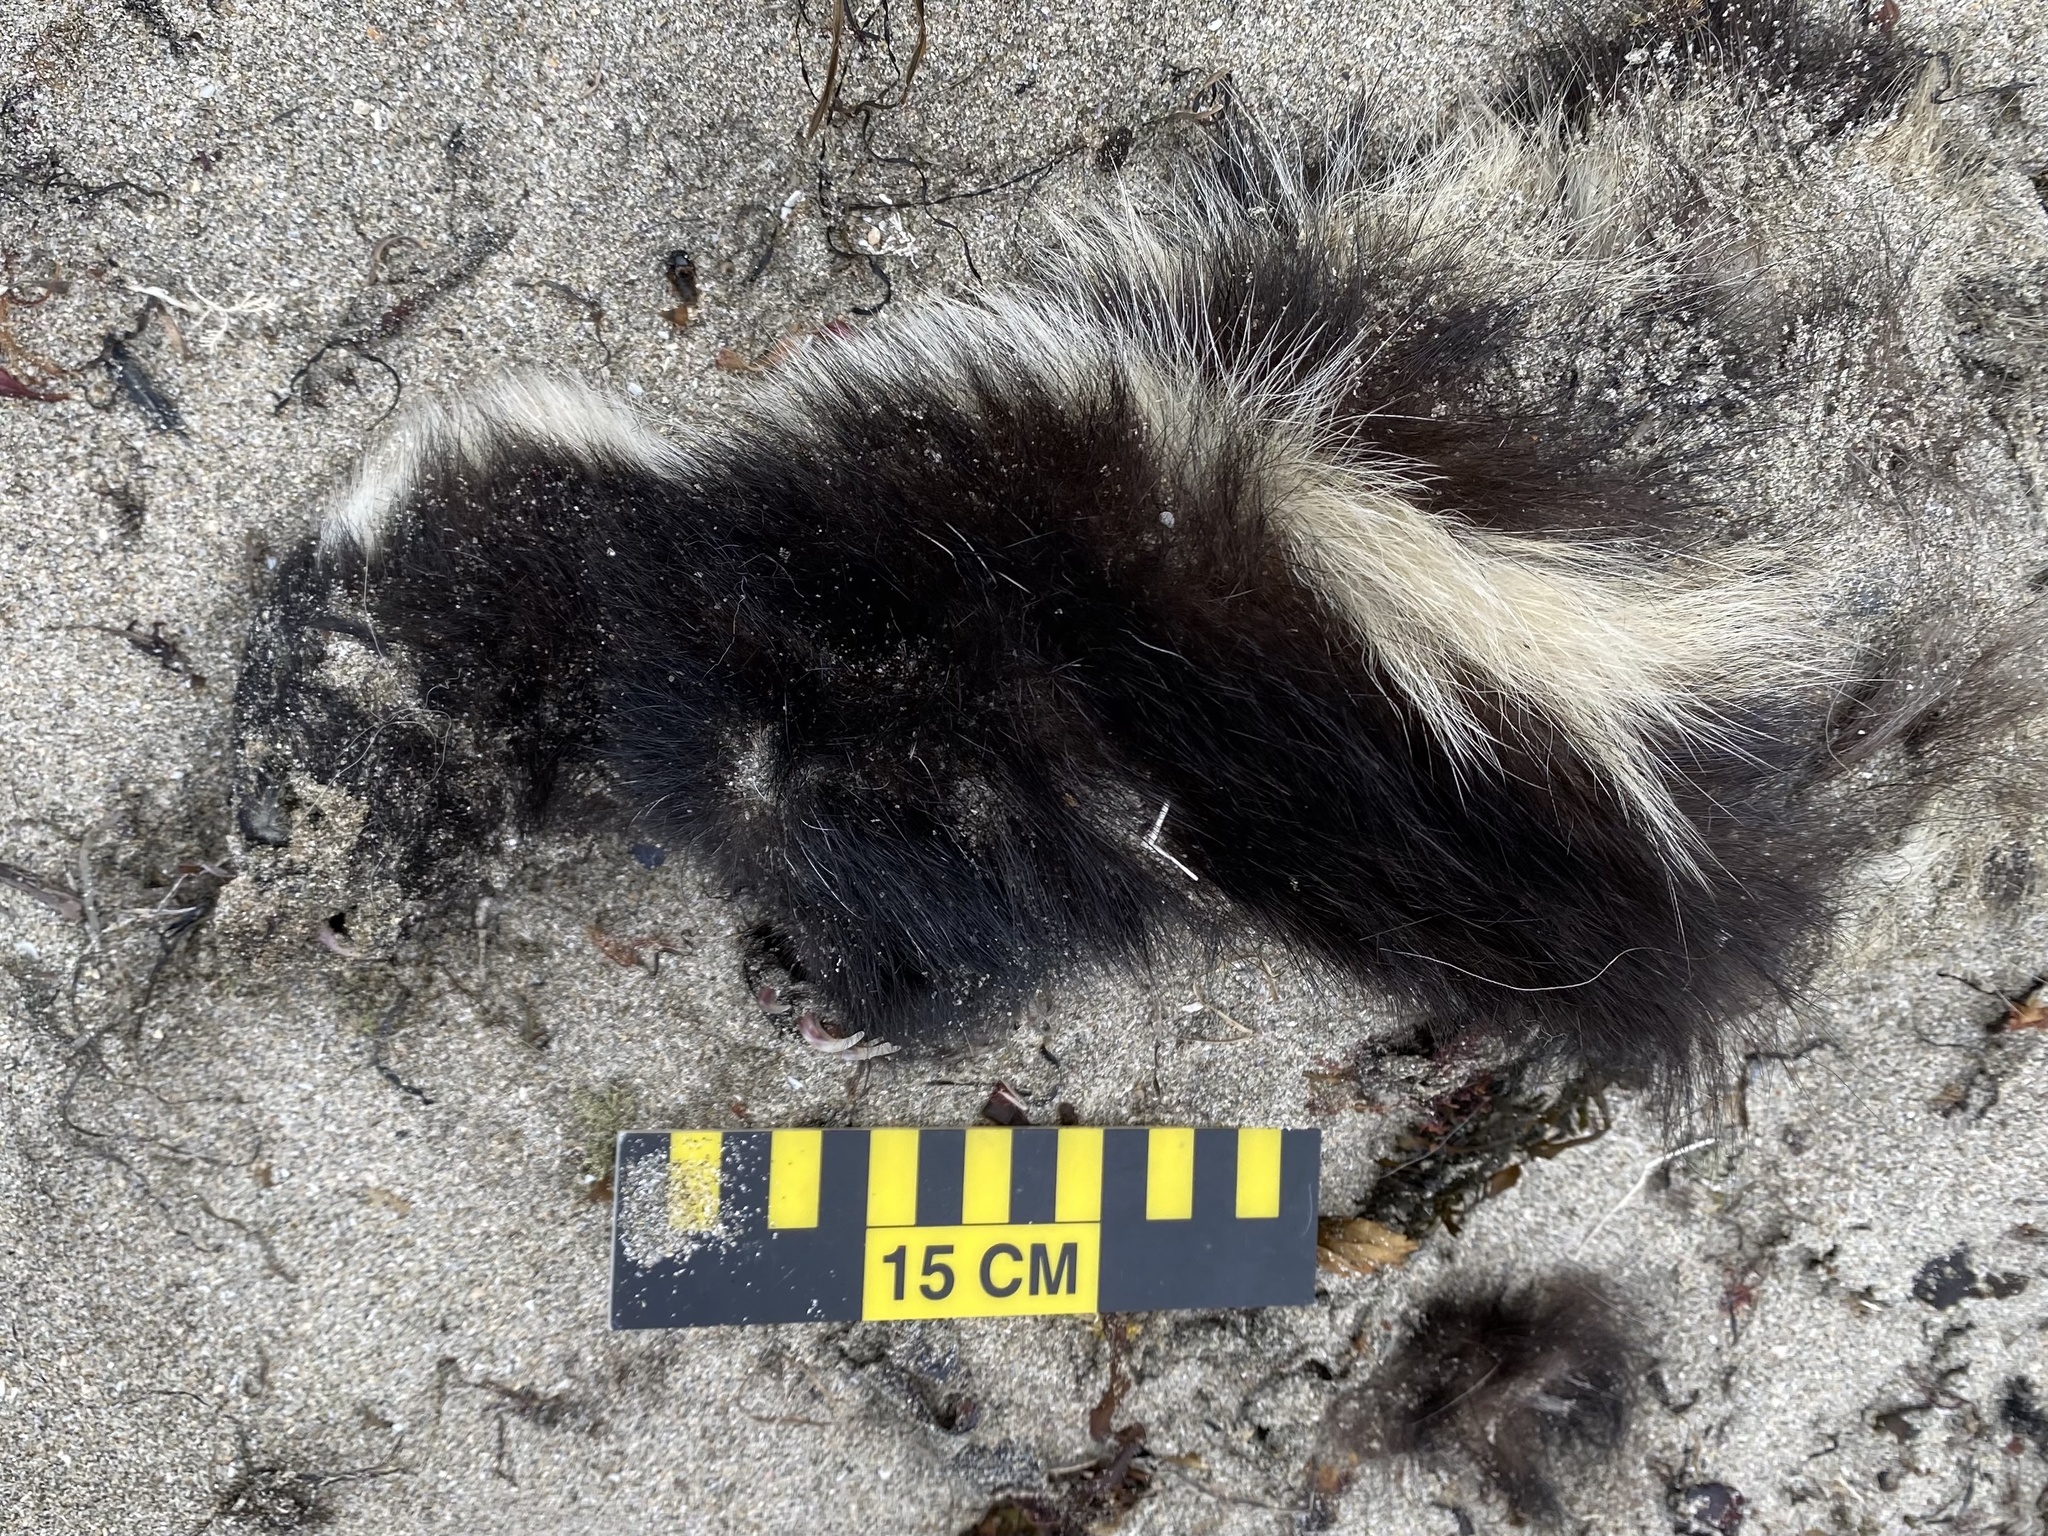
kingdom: Animalia
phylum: Chordata
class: Mammalia
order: Carnivora
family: Mephitidae
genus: Mephitis
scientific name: Mephitis mephitis
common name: Striped skunk
